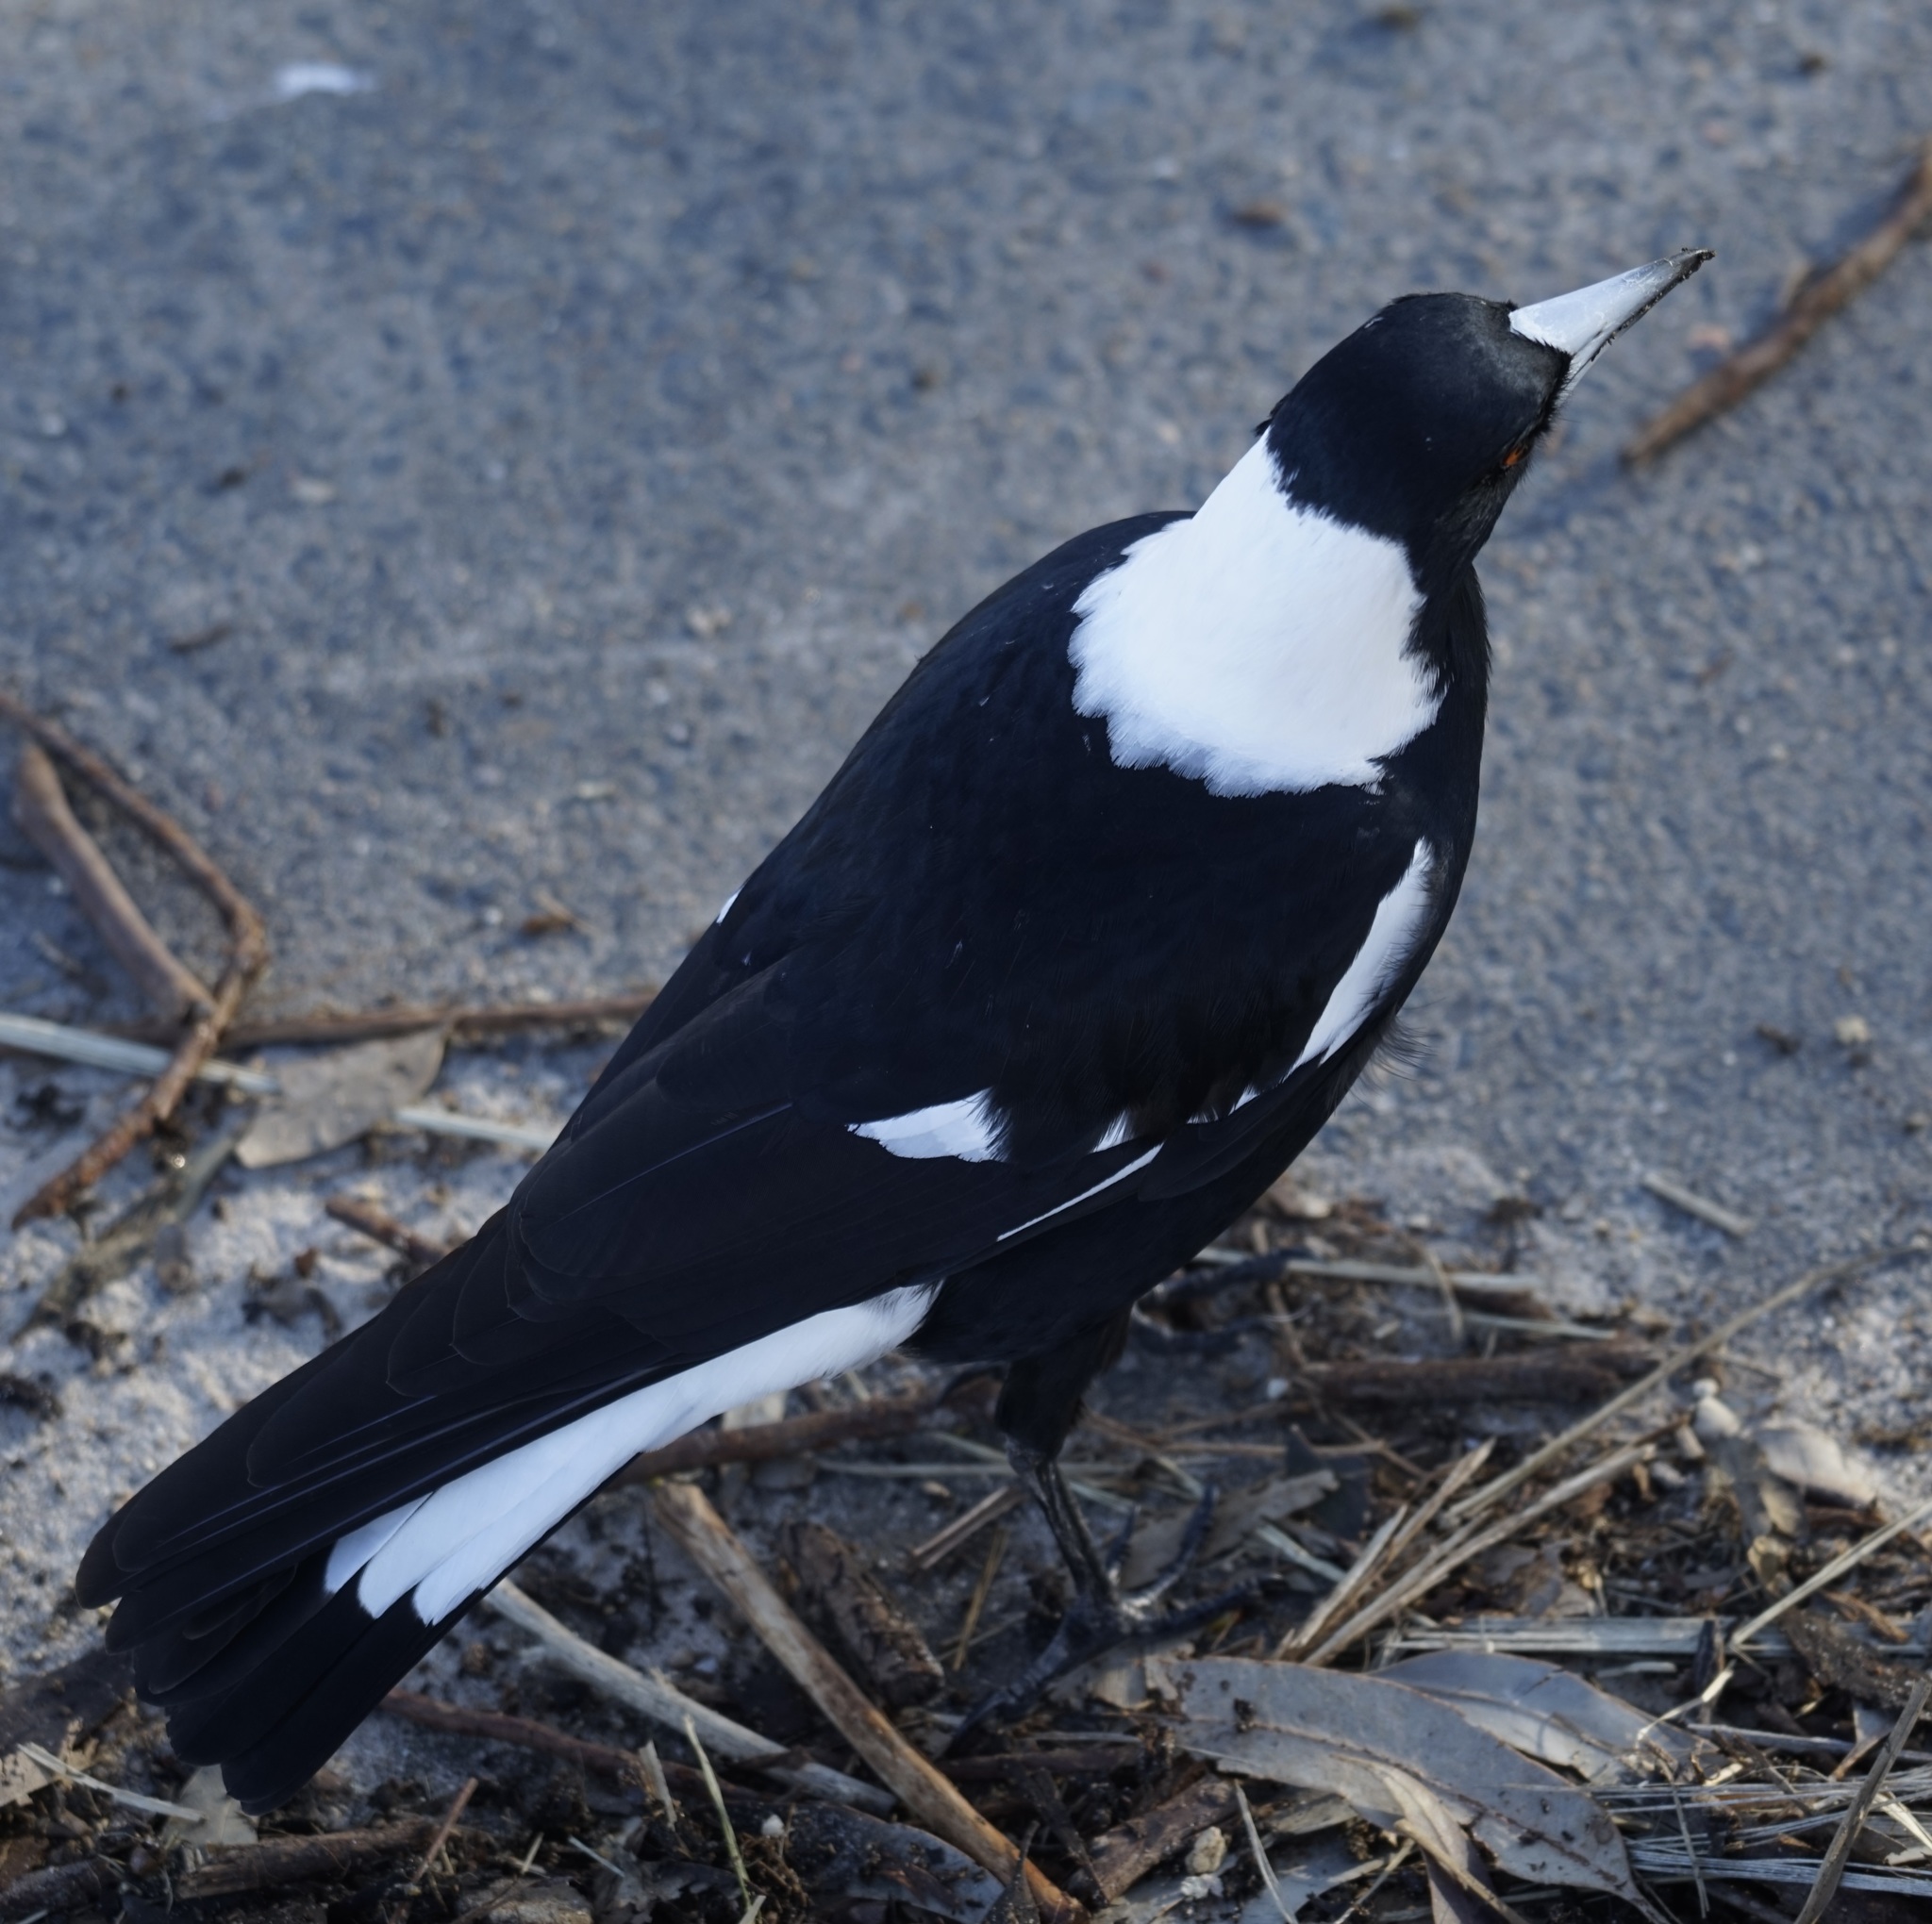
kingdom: Animalia
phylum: Chordata
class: Aves
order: Passeriformes
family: Cracticidae
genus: Gymnorhina
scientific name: Gymnorhina tibicen
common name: Australian magpie
